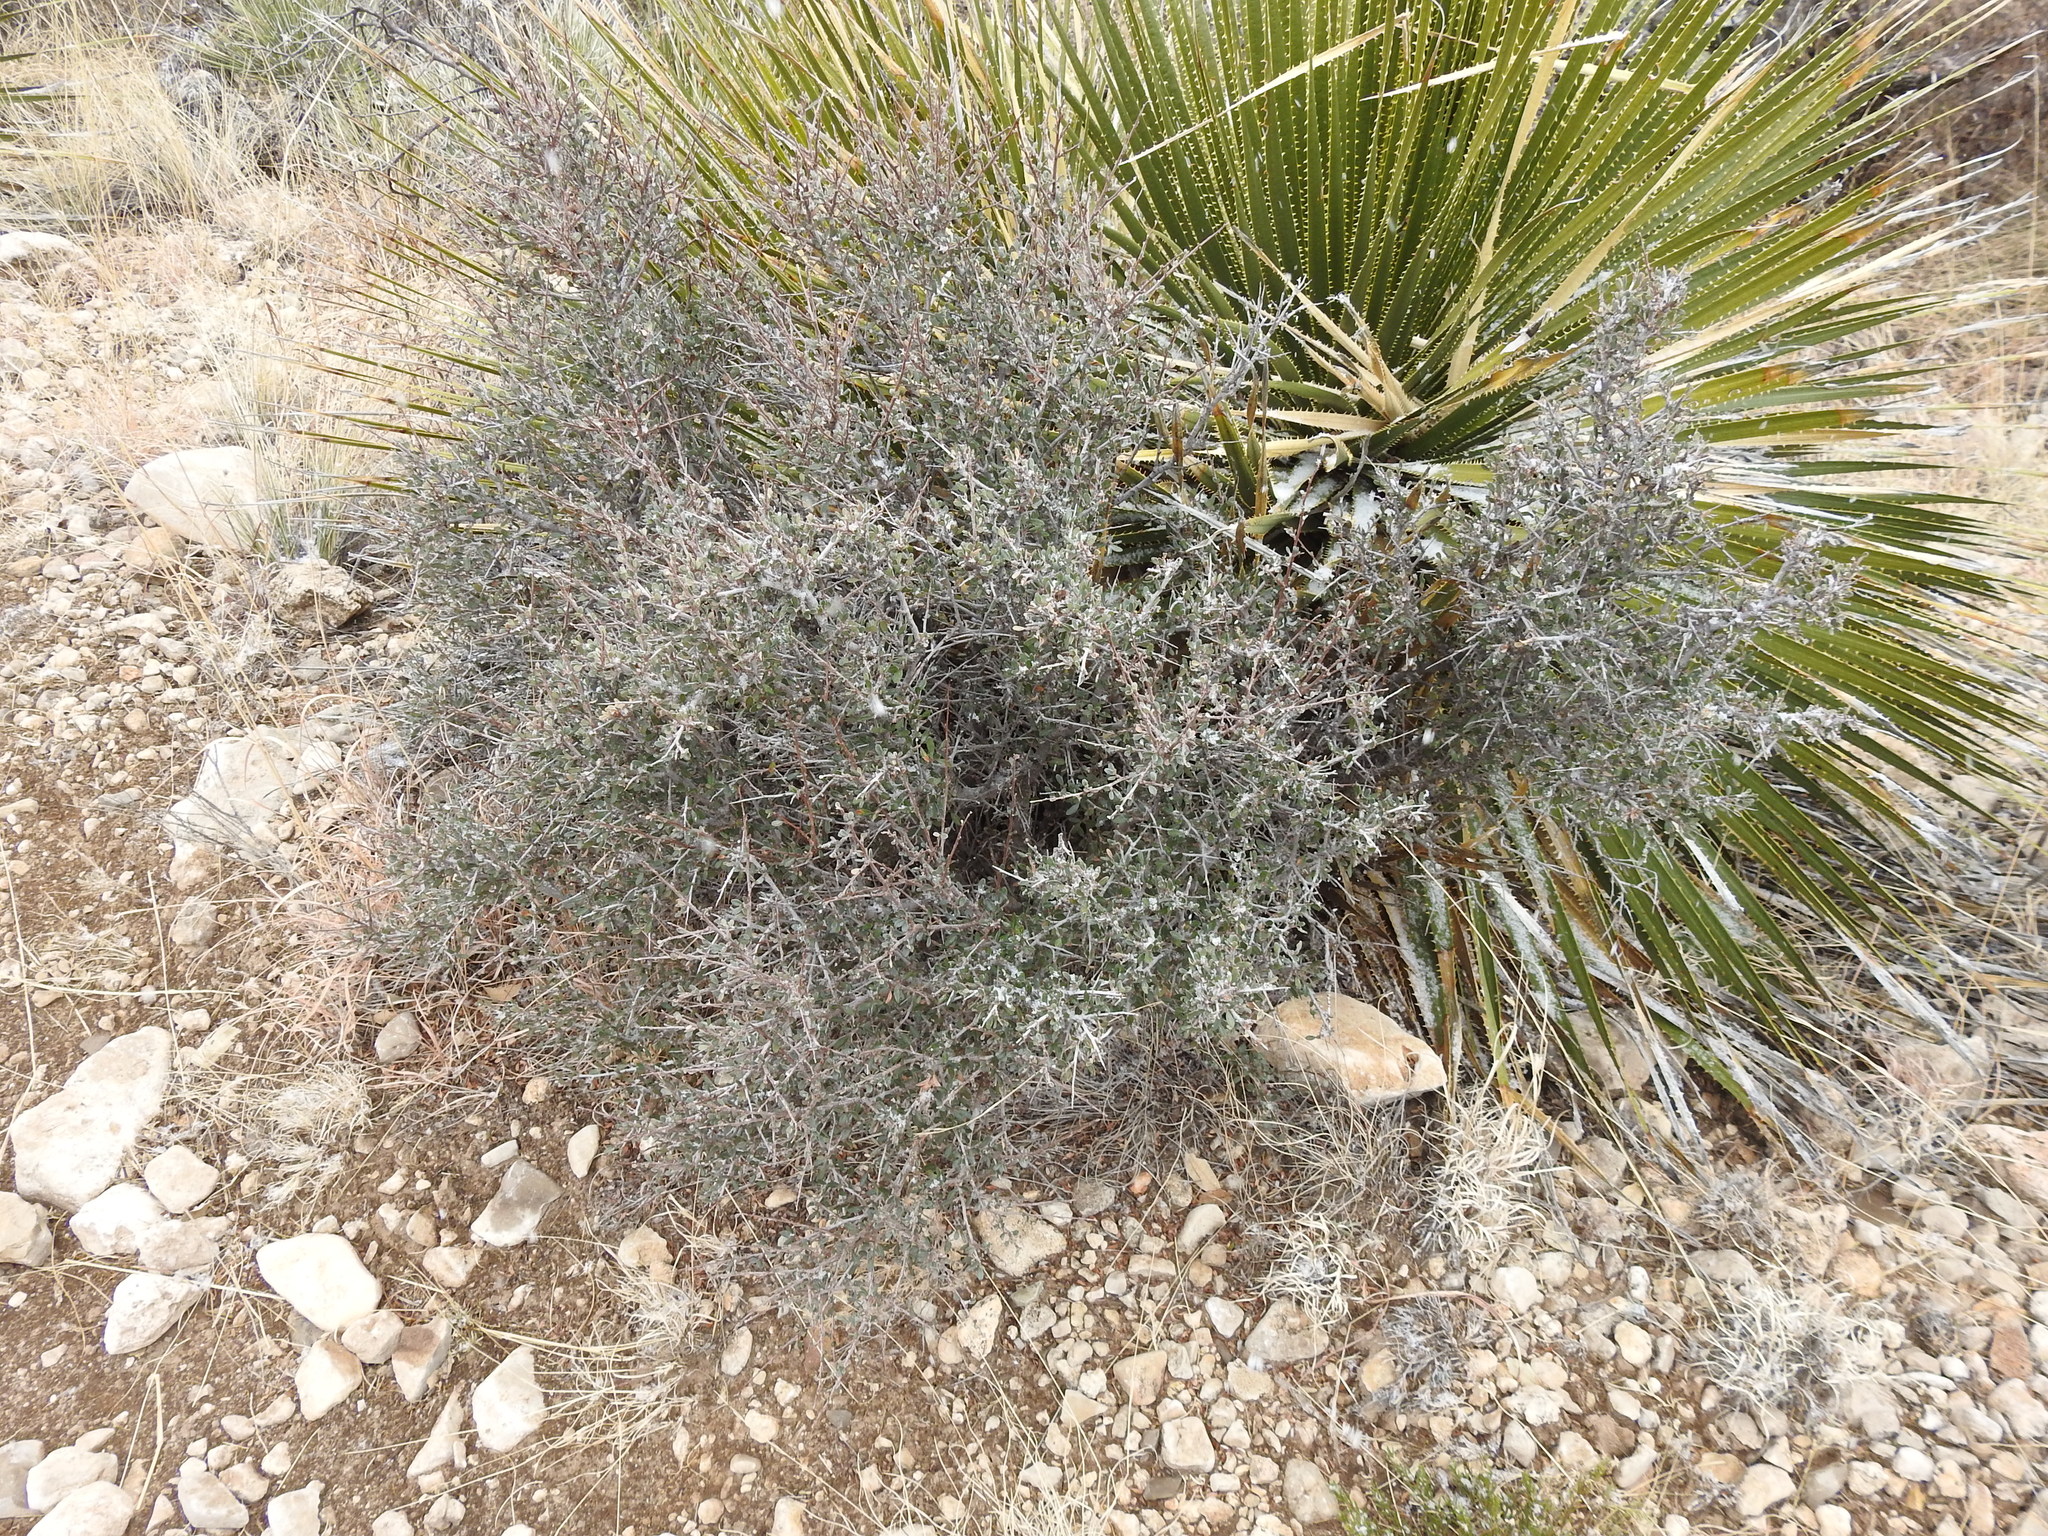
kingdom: Plantae
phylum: Tracheophyta
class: Magnoliopsida
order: Rosales
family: Rosaceae
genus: Cercocarpus
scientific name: Cercocarpus breviflorus
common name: Wright's mountain-mahogany
